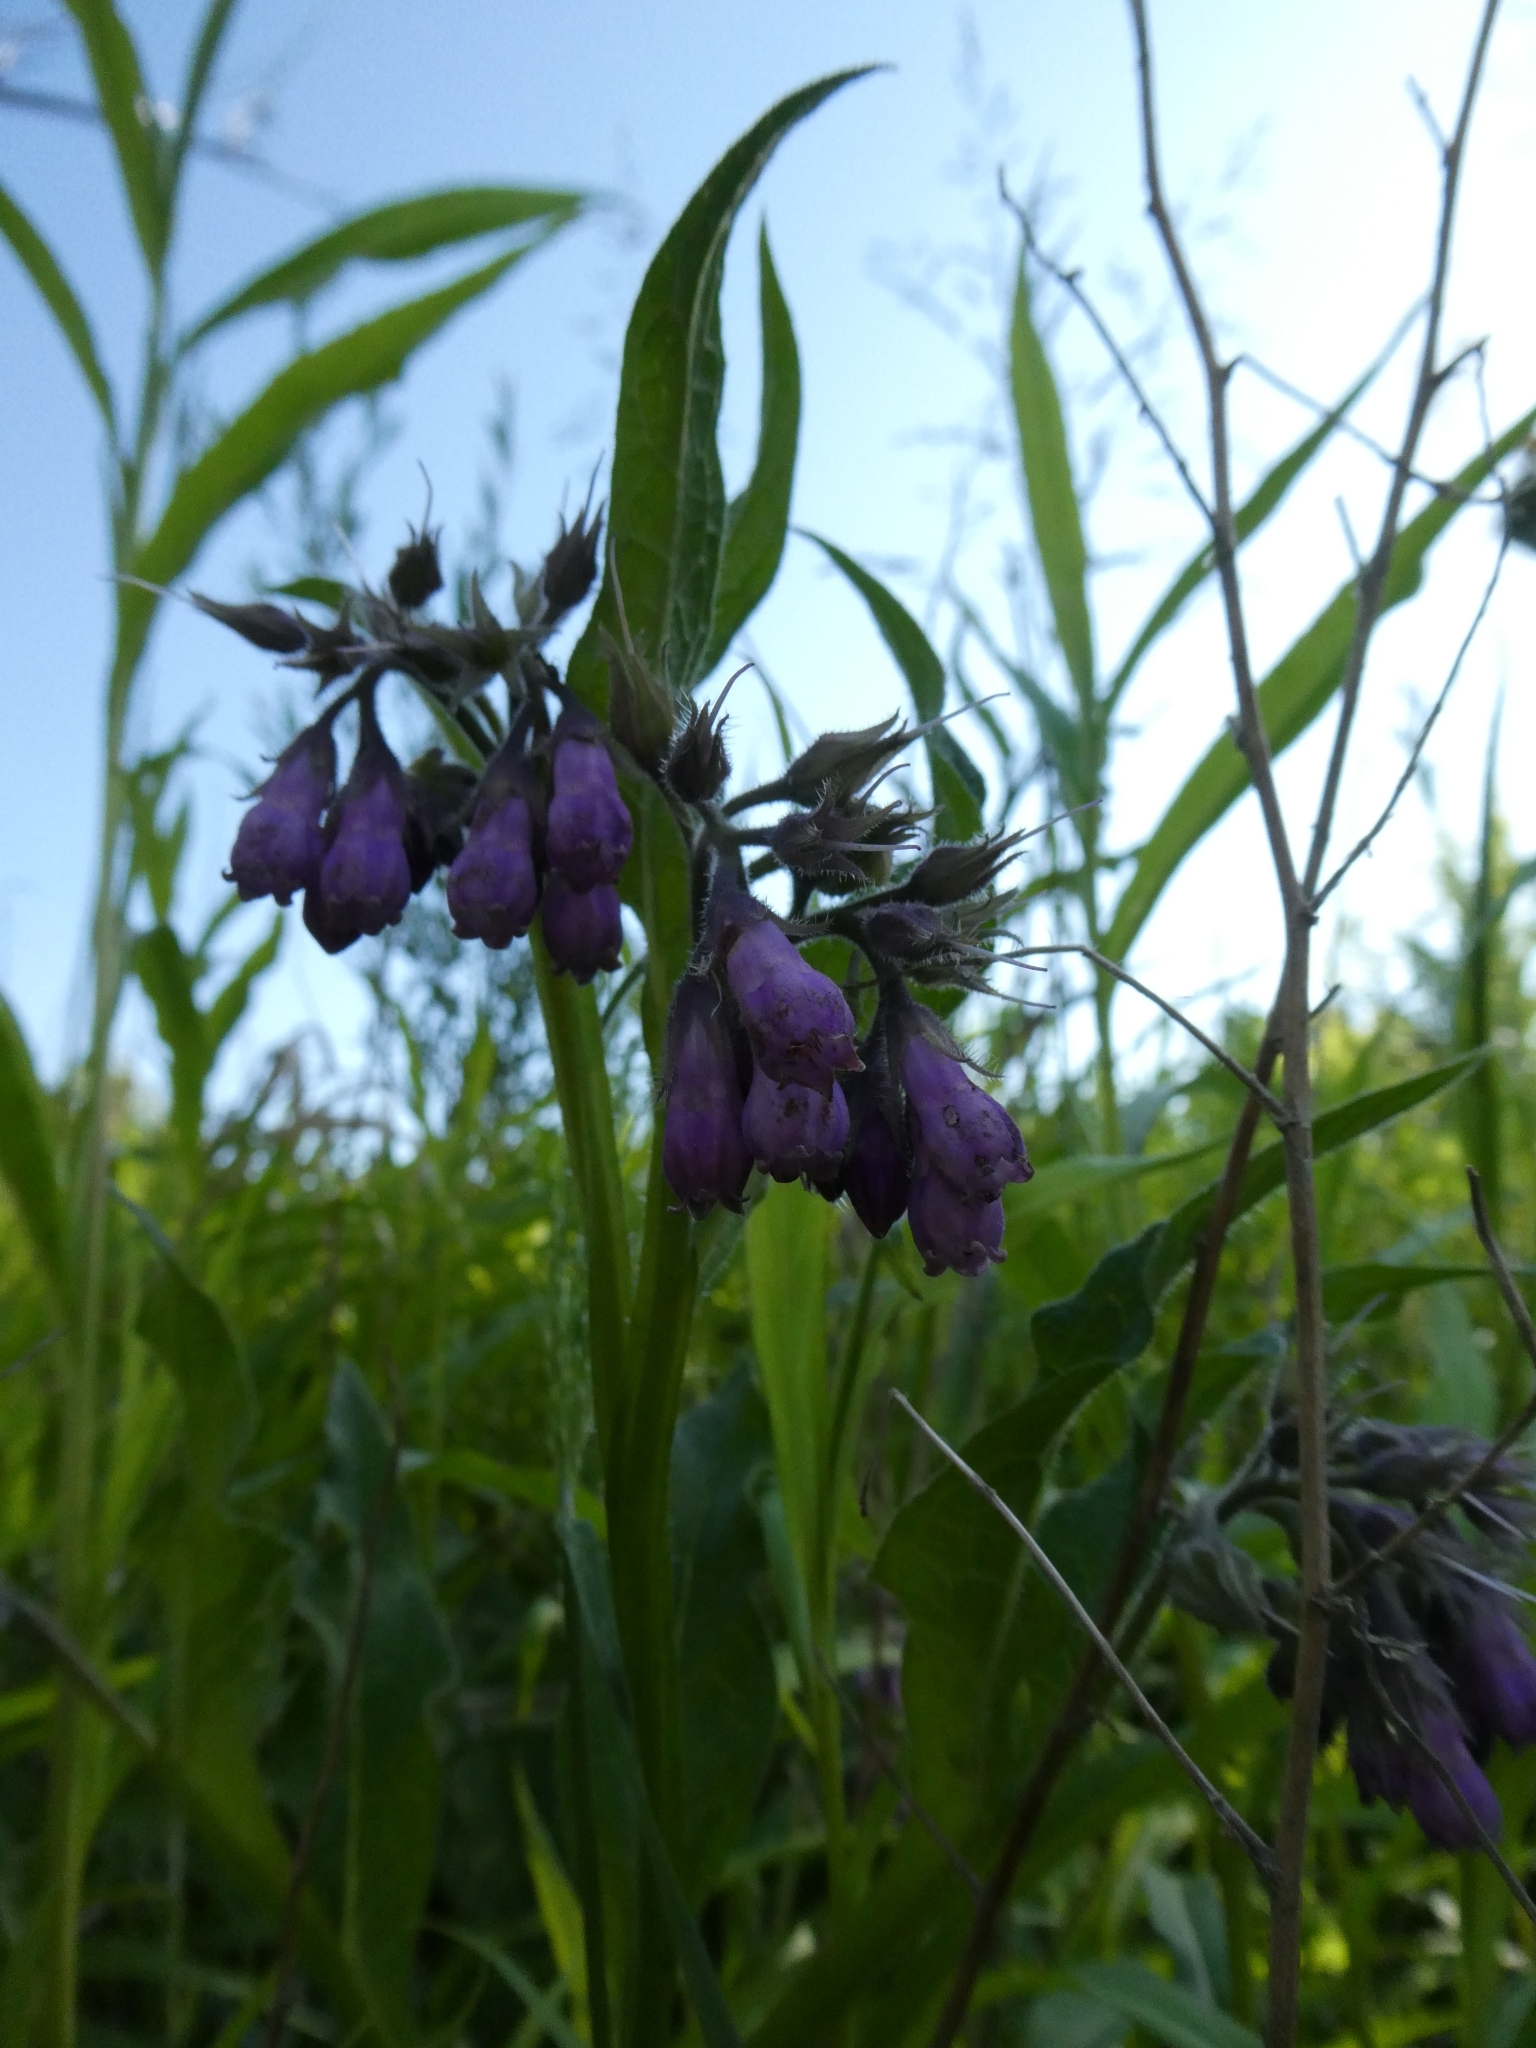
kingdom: Plantae
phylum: Tracheophyta
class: Magnoliopsida
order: Boraginales
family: Boraginaceae
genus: Symphytum
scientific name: Symphytum officinale
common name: Common comfrey
